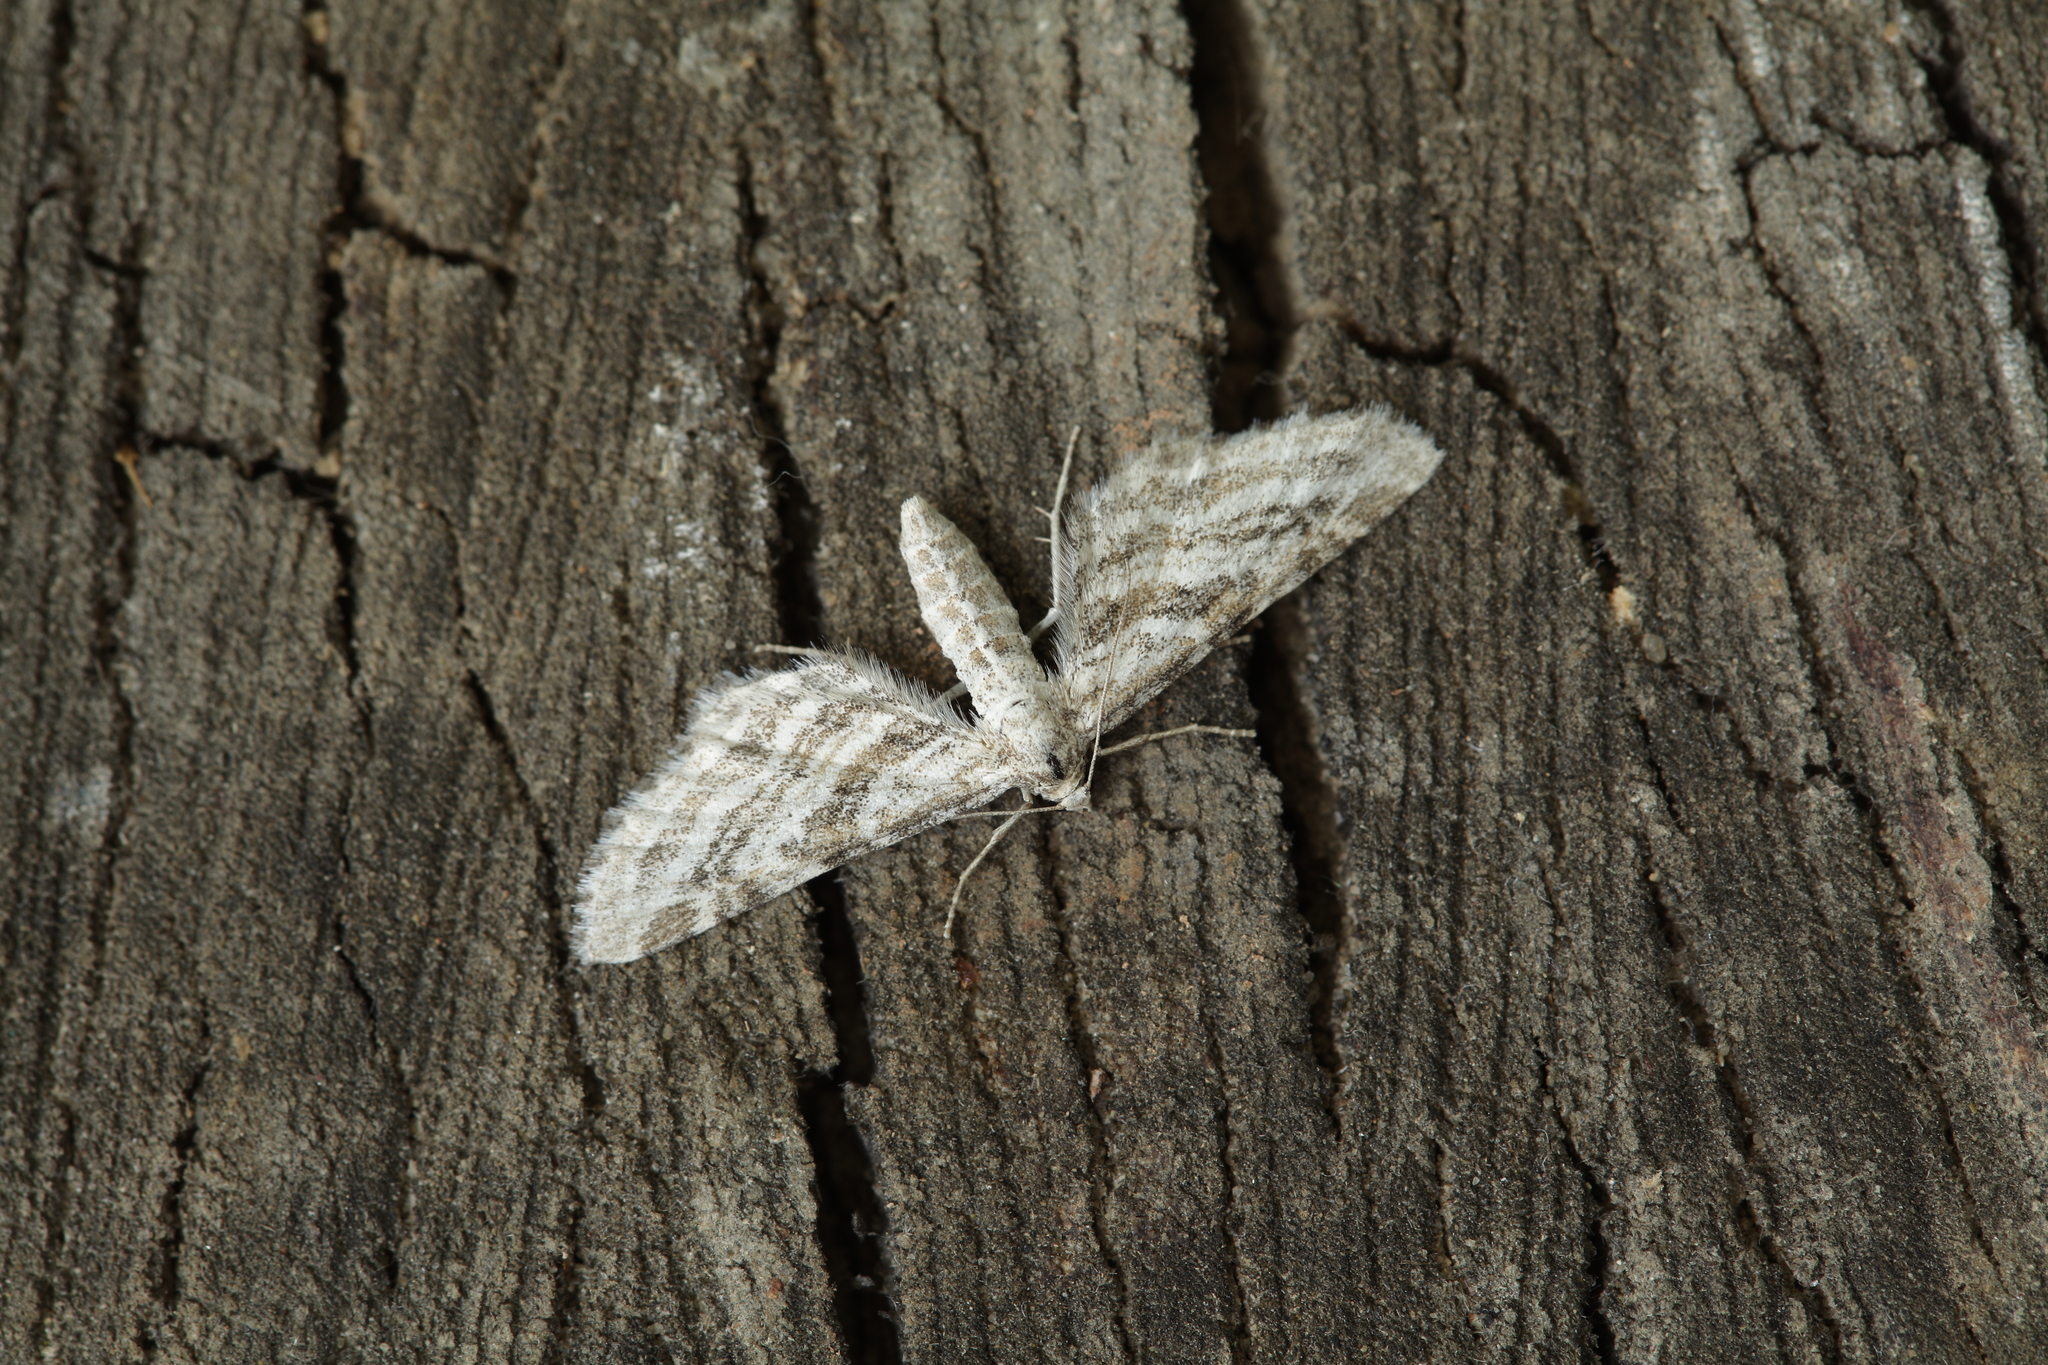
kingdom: Animalia
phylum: Arthropoda
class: Insecta
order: Lepidoptera
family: Geometridae
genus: Eupithecia
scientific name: Eupithecia extensaria
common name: Scarce pug
